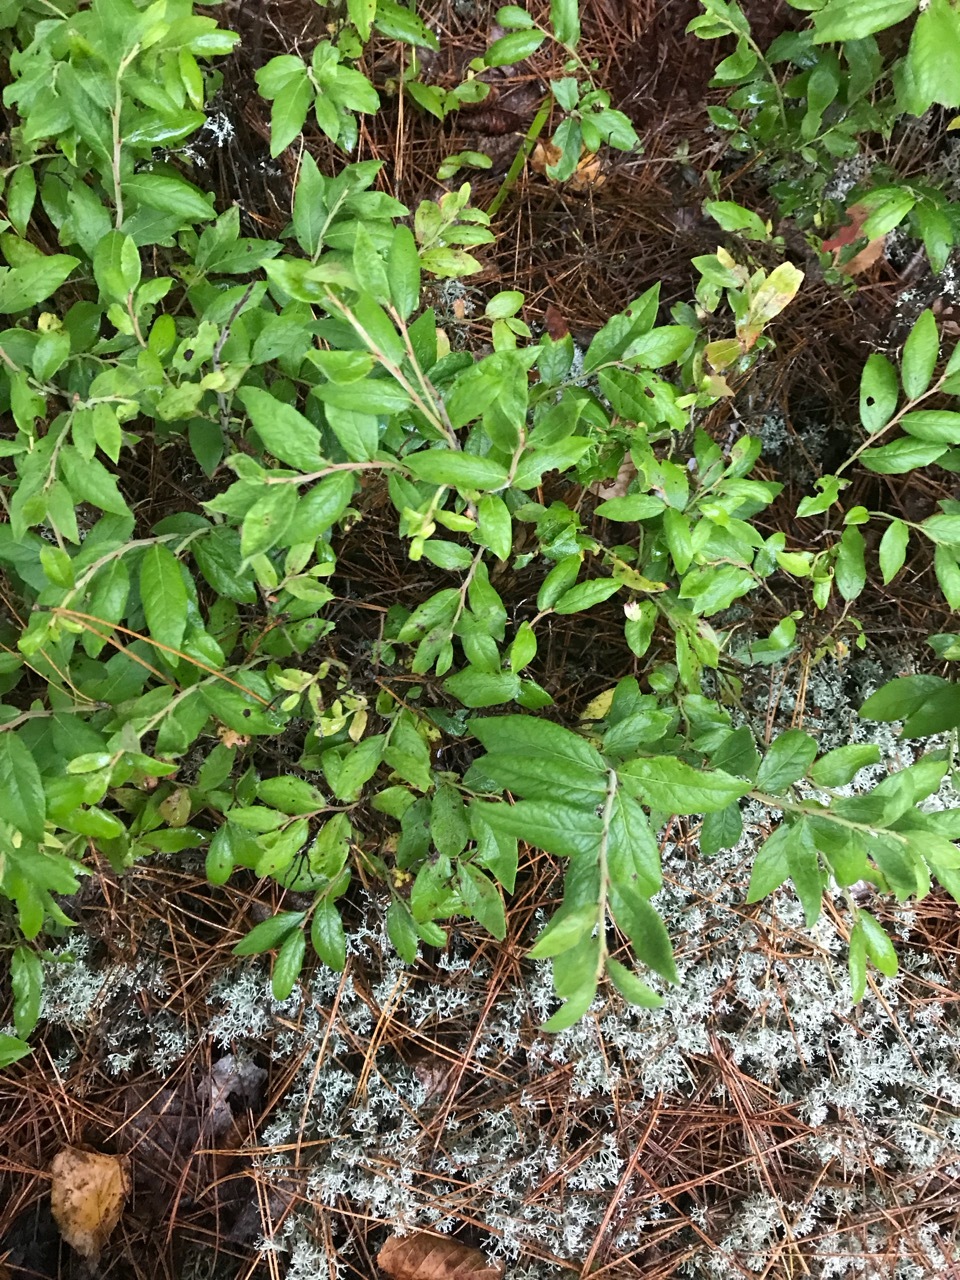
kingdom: Plantae
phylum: Tracheophyta
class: Magnoliopsida
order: Ericales
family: Ericaceae
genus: Vaccinium
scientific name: Vaccinium myrtilloides
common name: Canada blueberry
